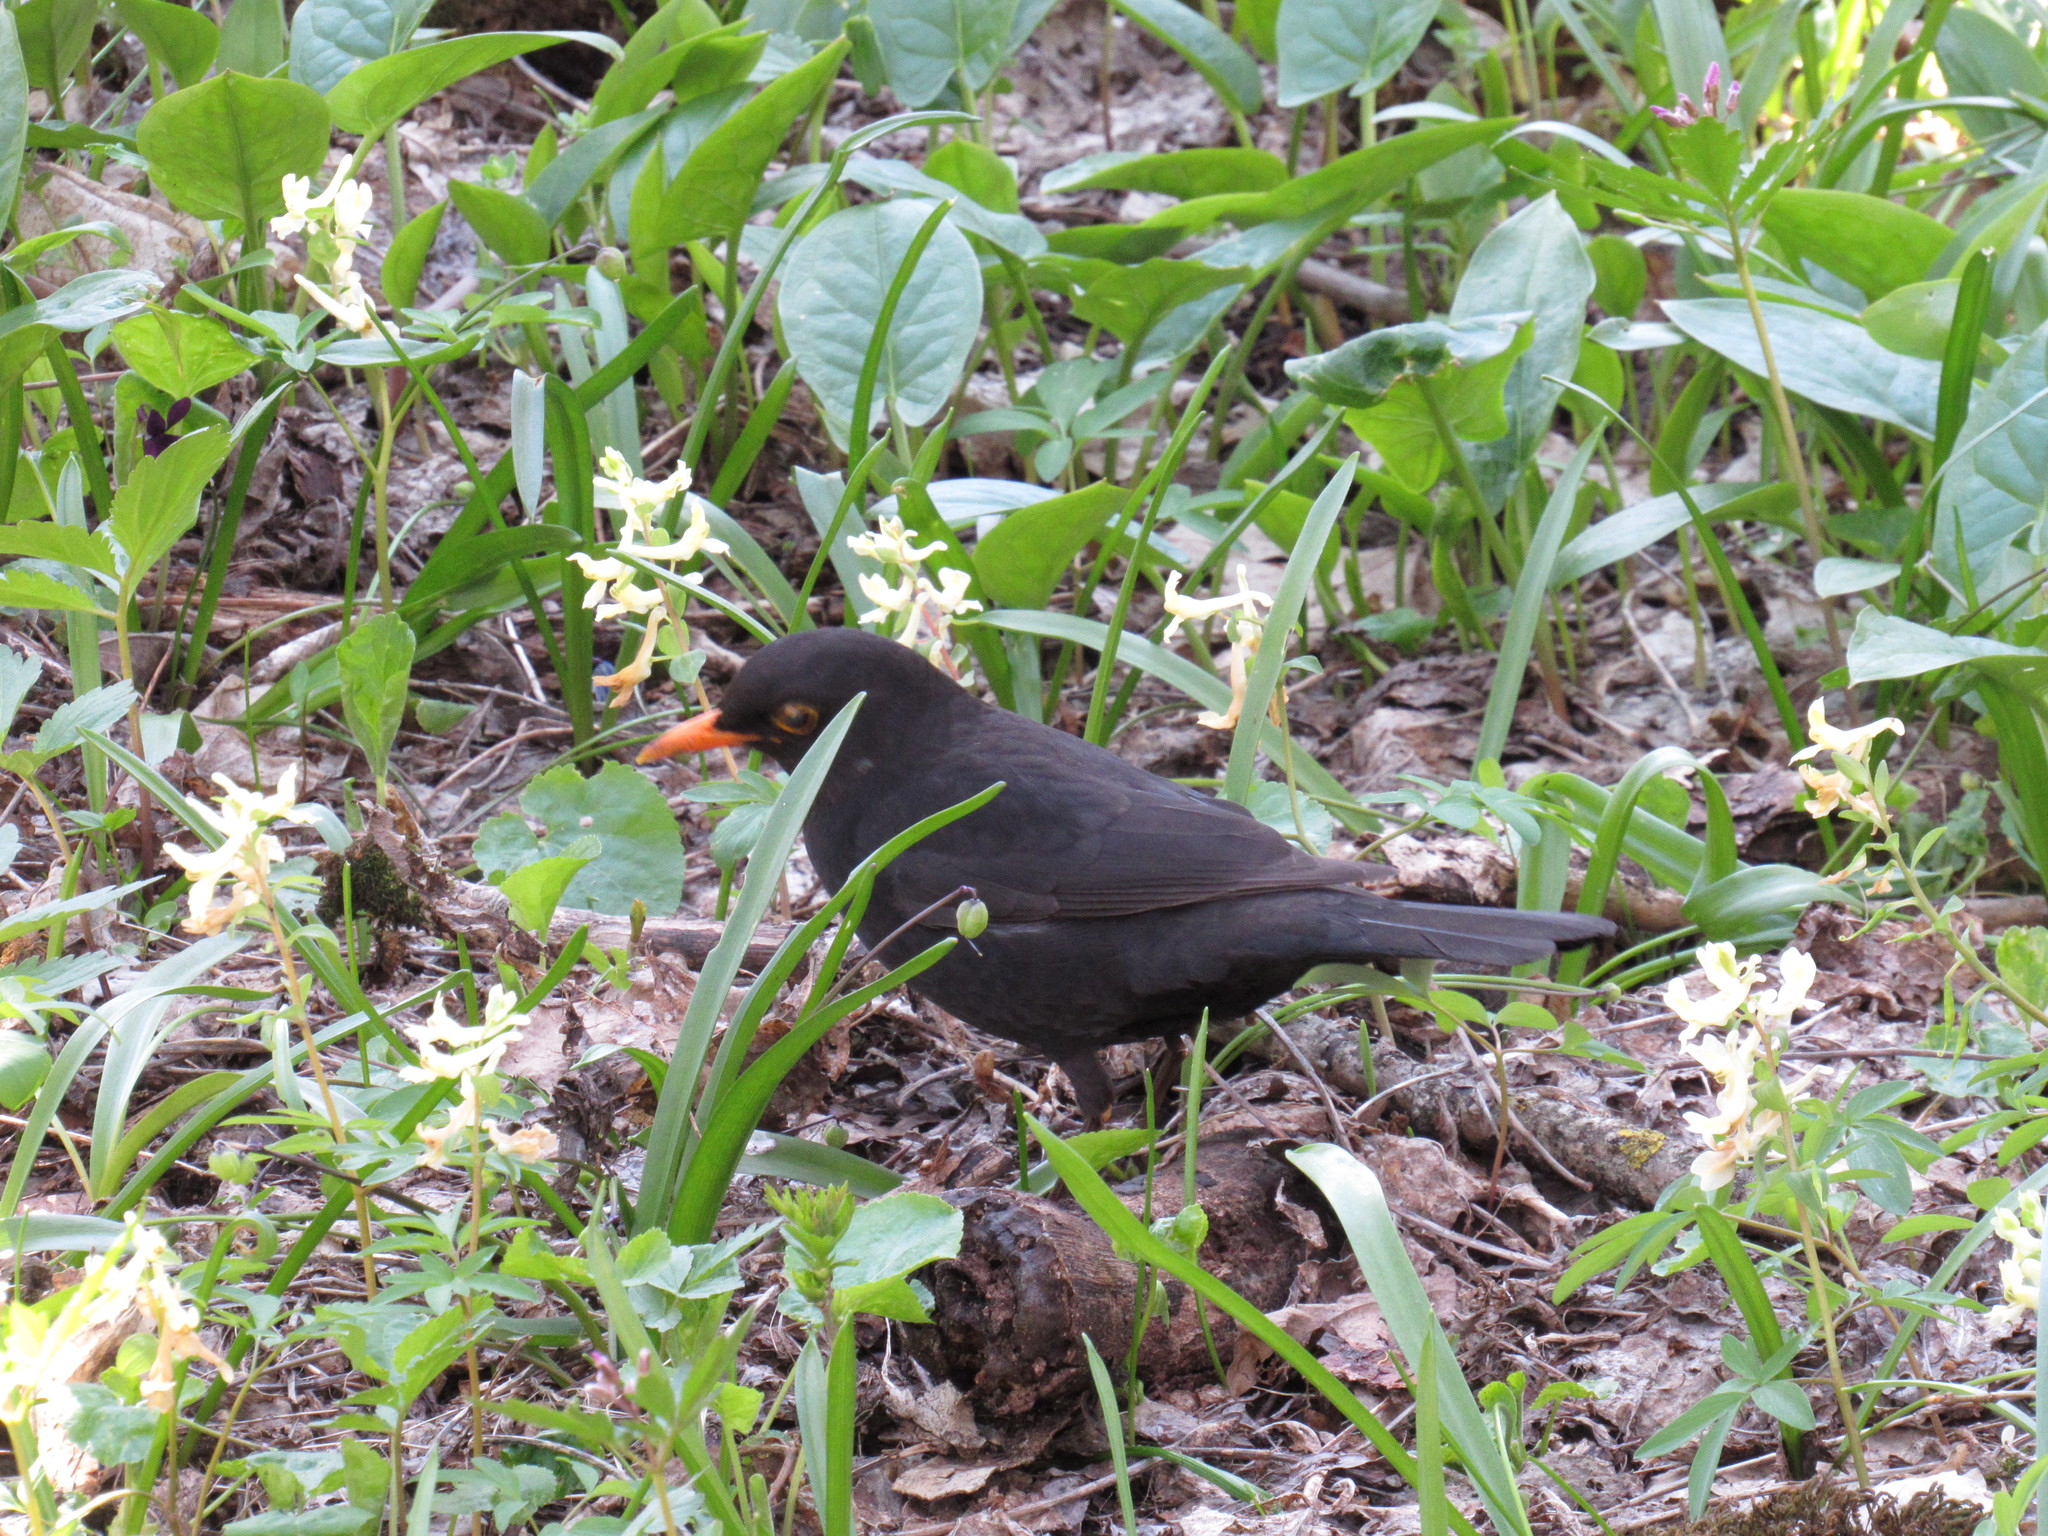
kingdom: Animalia
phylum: Chordata
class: Aves
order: Passeriformes
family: Turdidae
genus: Turdus
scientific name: Turdus merula
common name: Common blackbird
